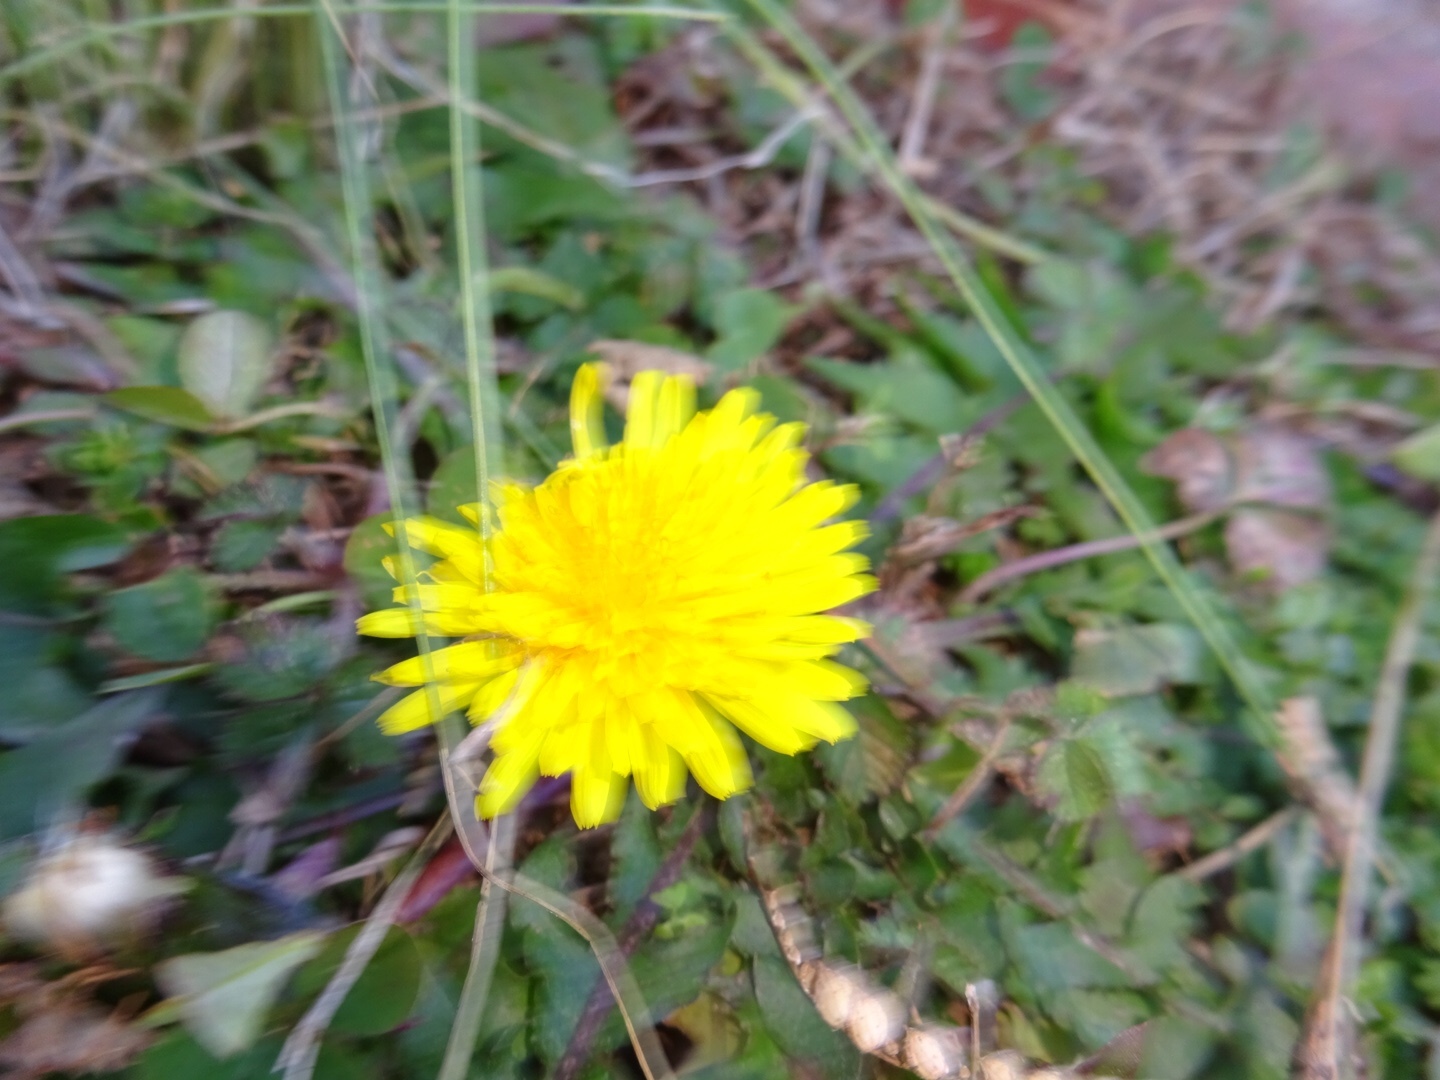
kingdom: Plantae
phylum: Tracheophyta
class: Magnoliopsida
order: Asterales
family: Asteraceae
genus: Taraxacum
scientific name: Taraxacum
